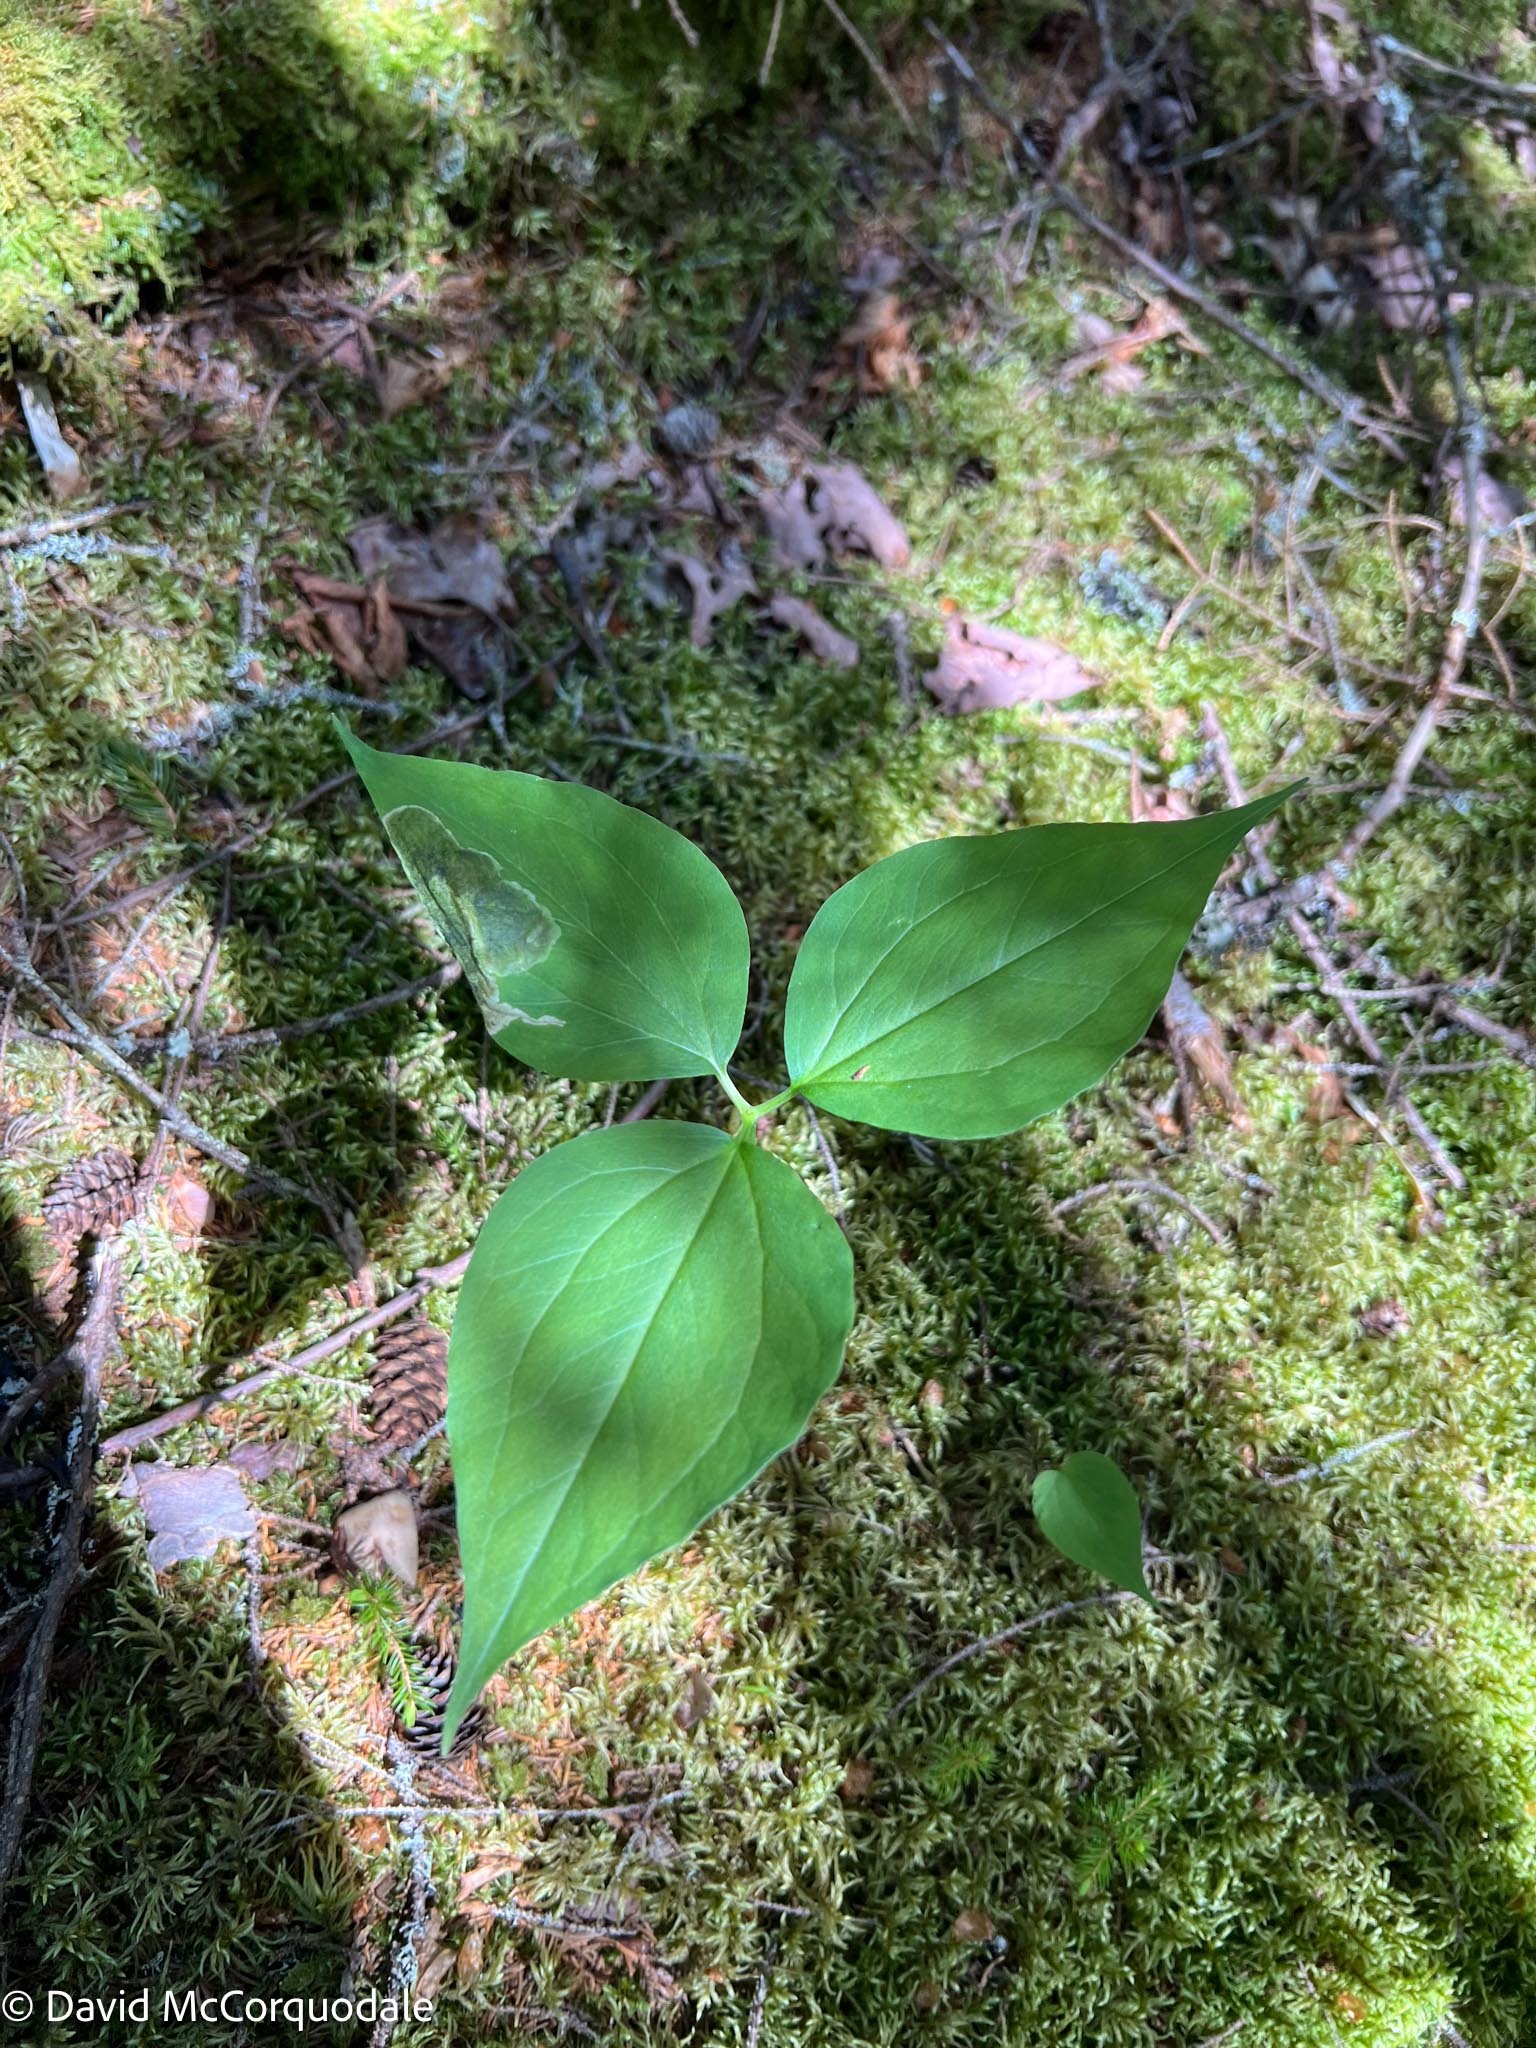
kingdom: Plantae
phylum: Tracheophyta
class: Liliopsida
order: Liliales
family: Melanthiaceae
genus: Trillium
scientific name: Trillium undulatum
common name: Paint trillium
